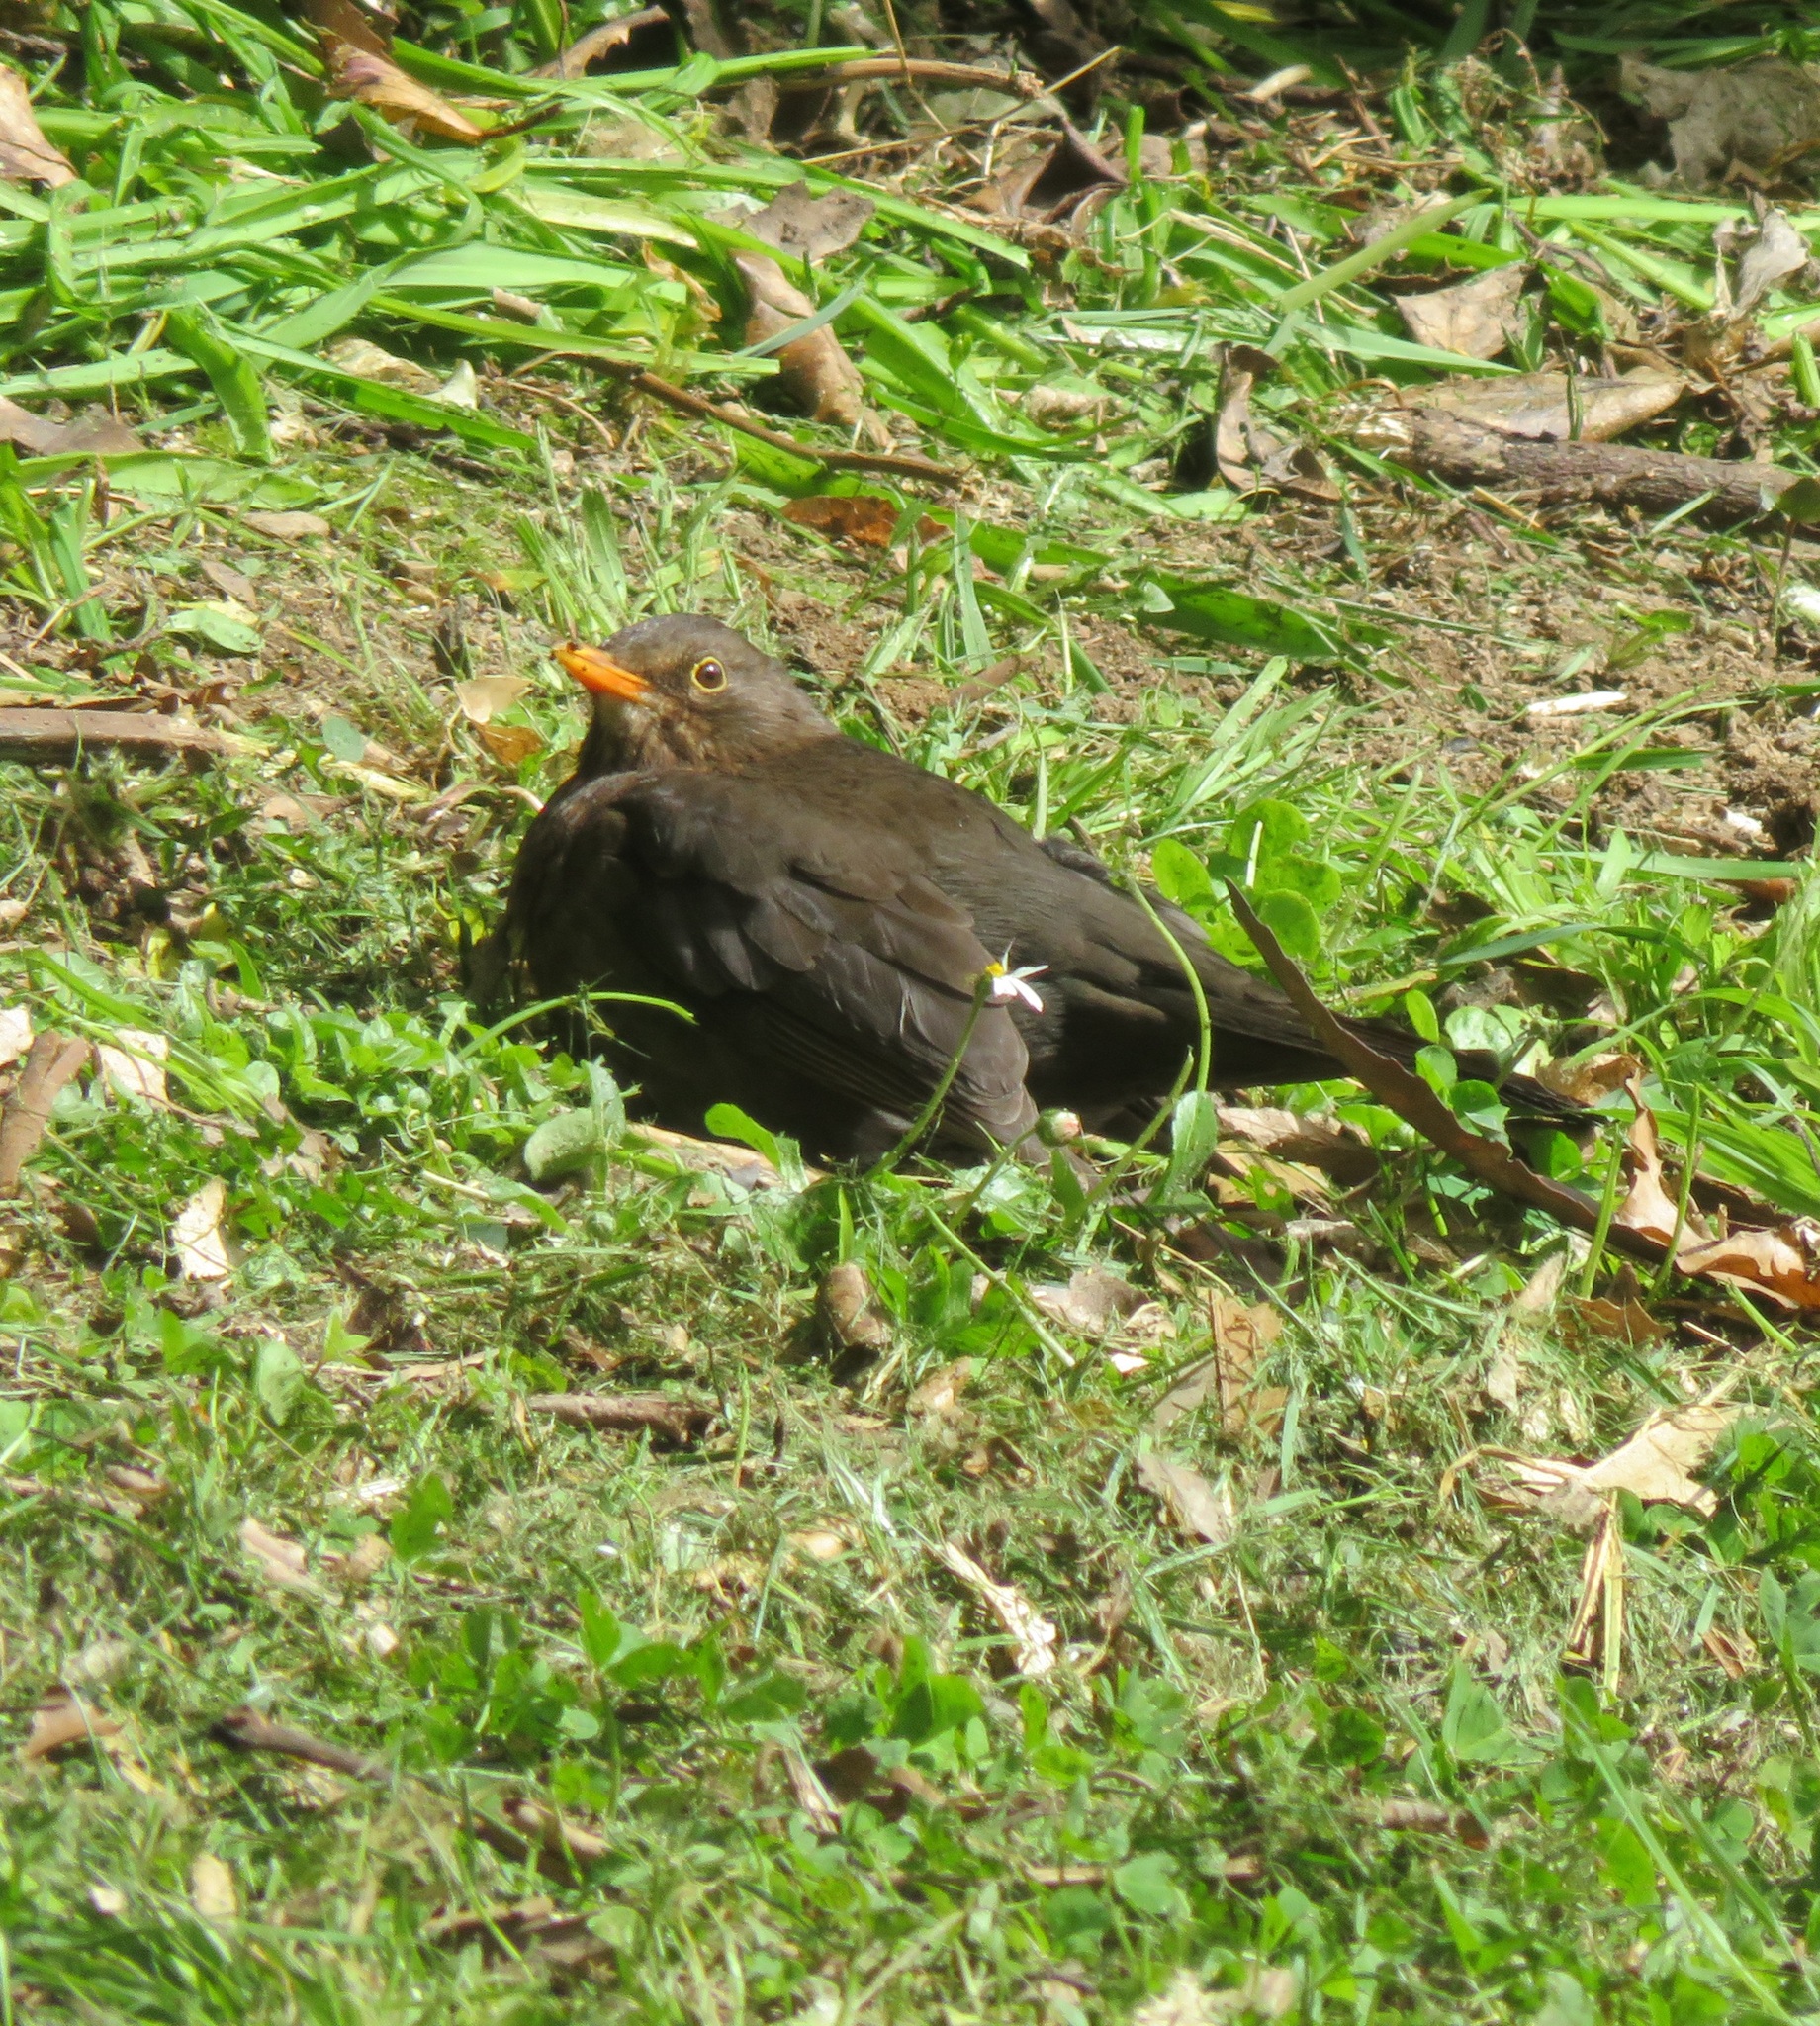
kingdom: Animalia
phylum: Chordata
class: Aves
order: Passeriformes
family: Turdidae
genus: Turdus
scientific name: Turdus merula
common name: Common blackbird
